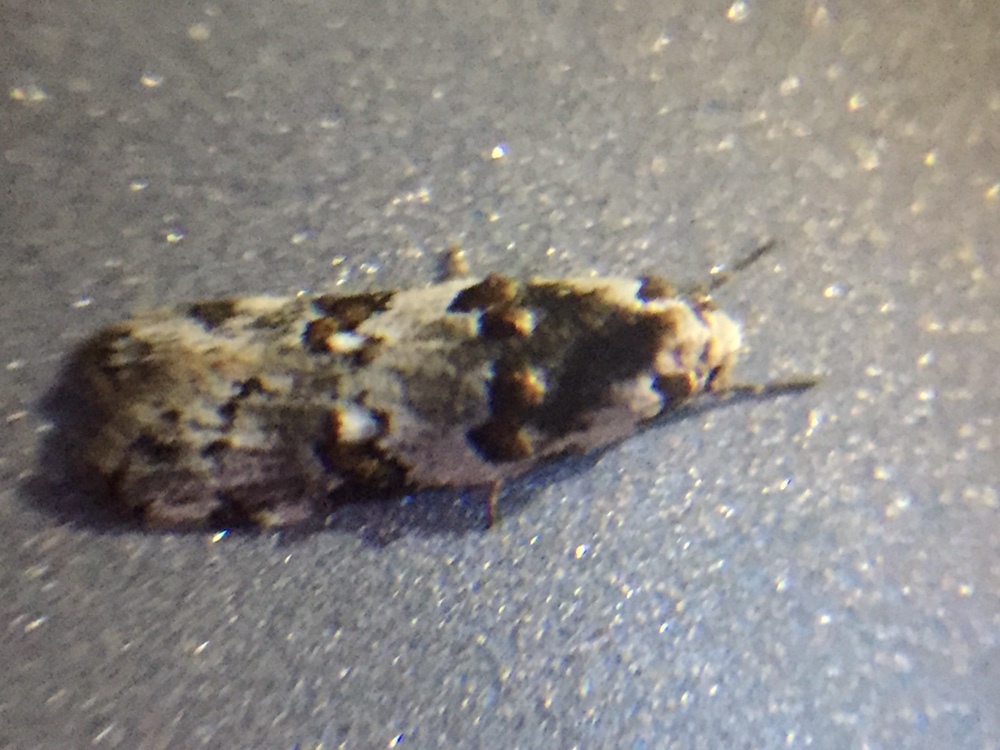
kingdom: Animalia
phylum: Arthropoda
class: Insecta
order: Lepidoptera
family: Oecophoridae
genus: Trachypepla
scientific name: Trachypepla galaxias
